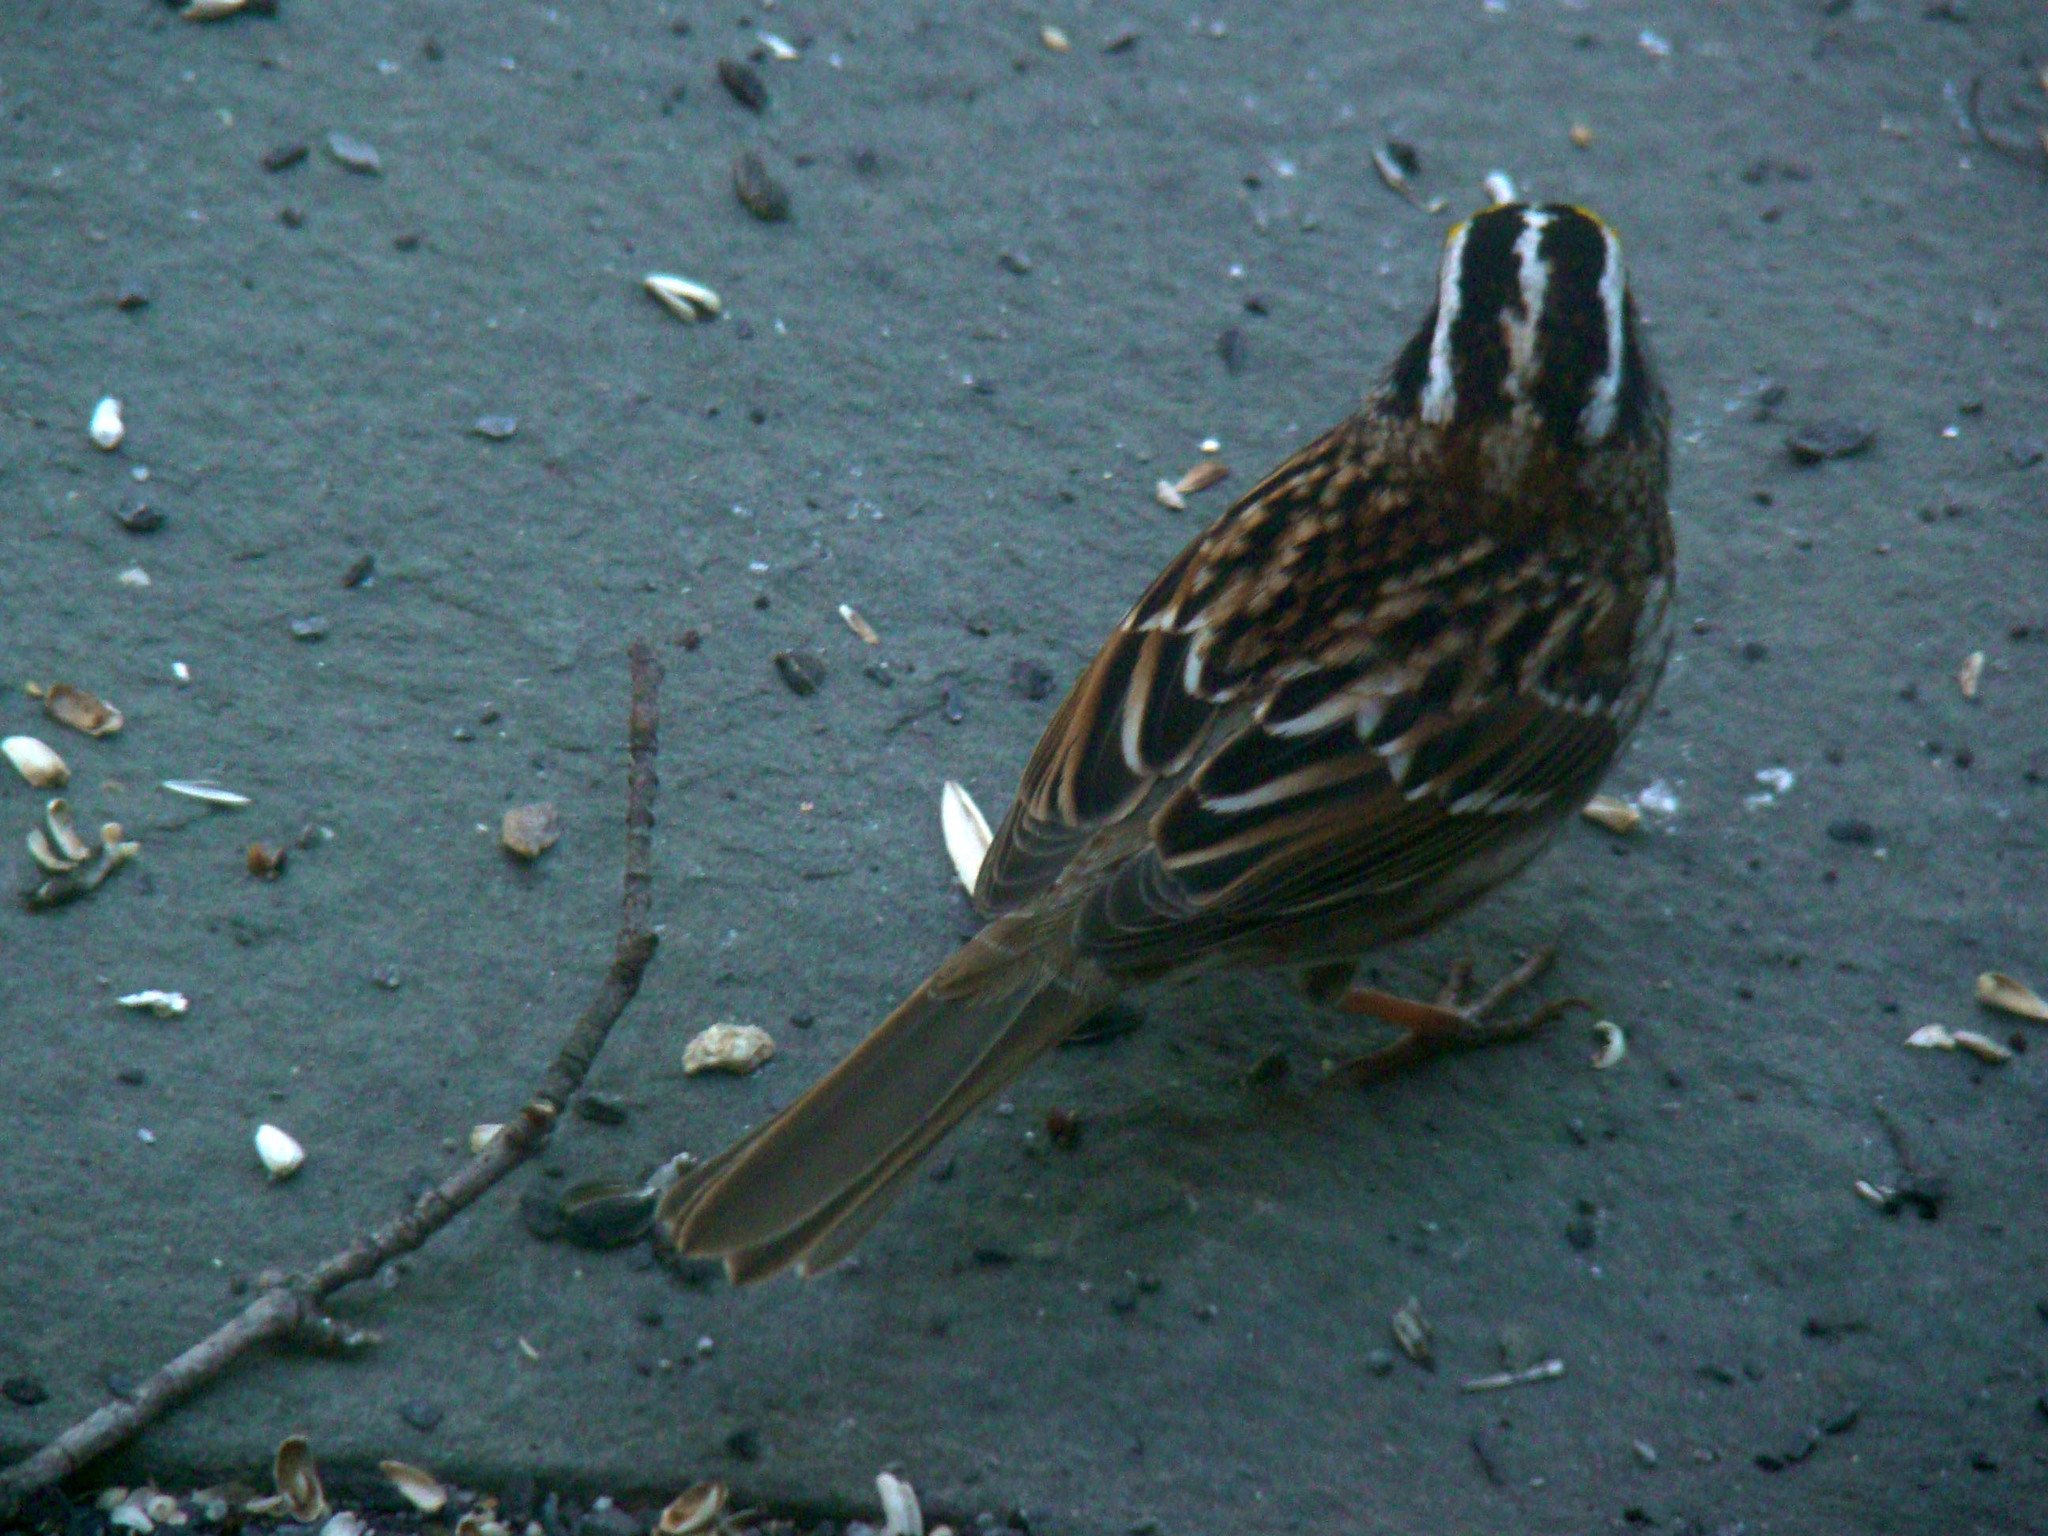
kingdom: Animalia
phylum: Chordata
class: Aves
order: Passeriformes
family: Passerellidae
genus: Zonotrichia
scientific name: Zonotrichia albicollis
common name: White-throated sparrow
